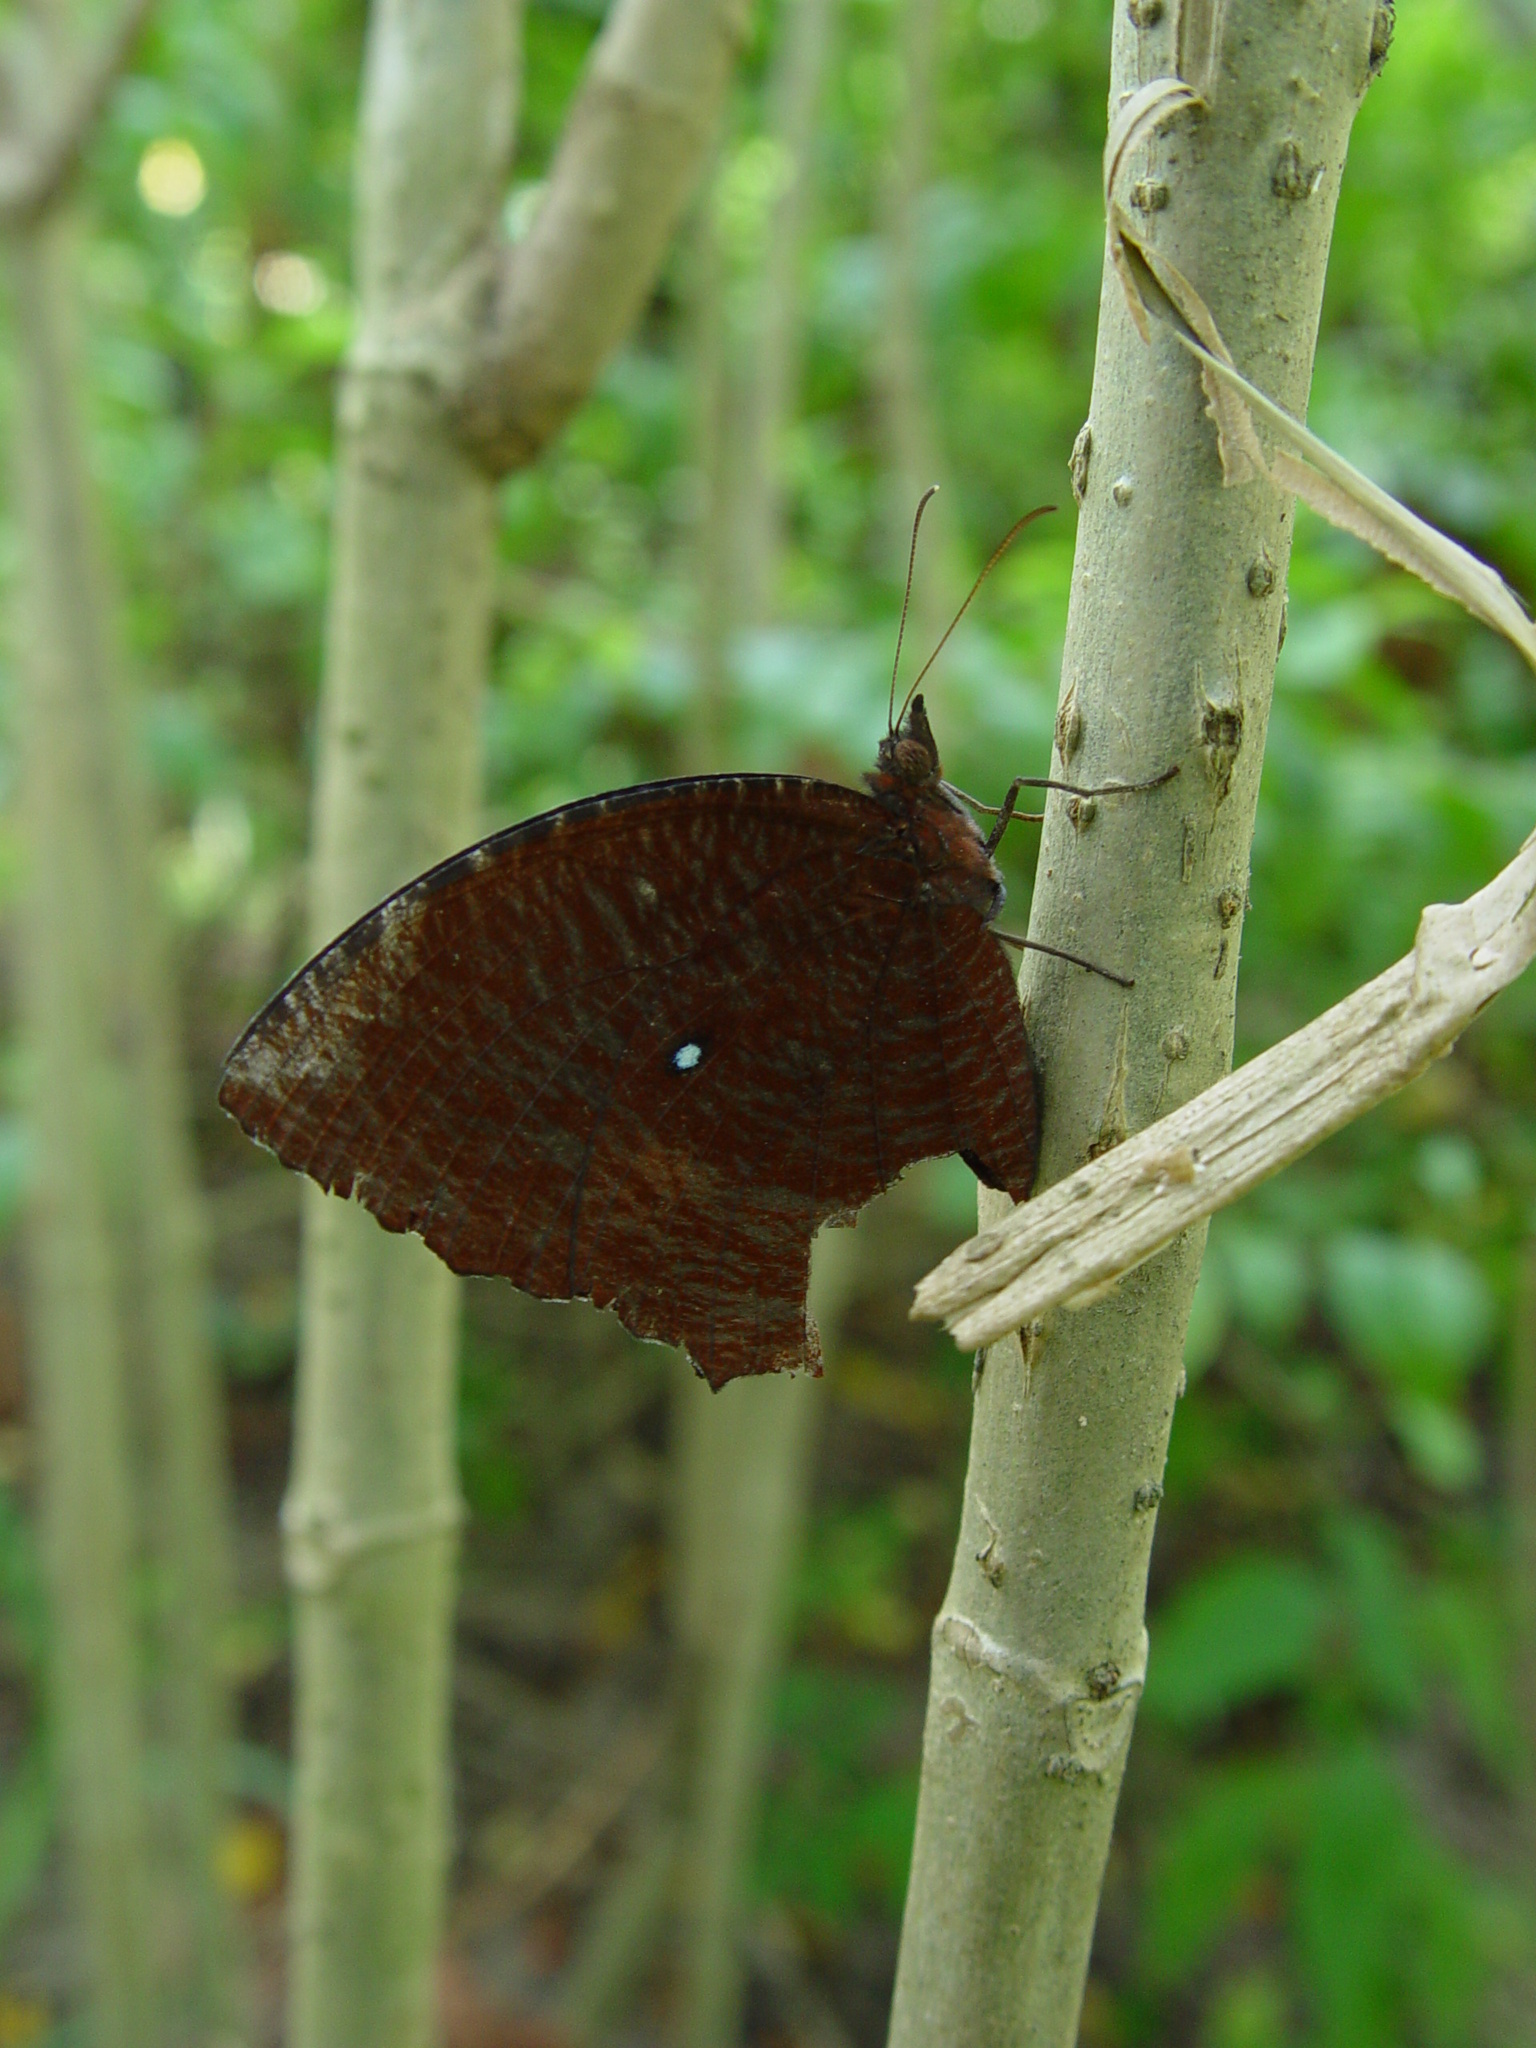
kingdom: Animalia
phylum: Arthropoda
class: Insecta
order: Lepidoptera
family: Nymphalidae
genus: Elymnias
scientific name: Elymnias hypermnestra
